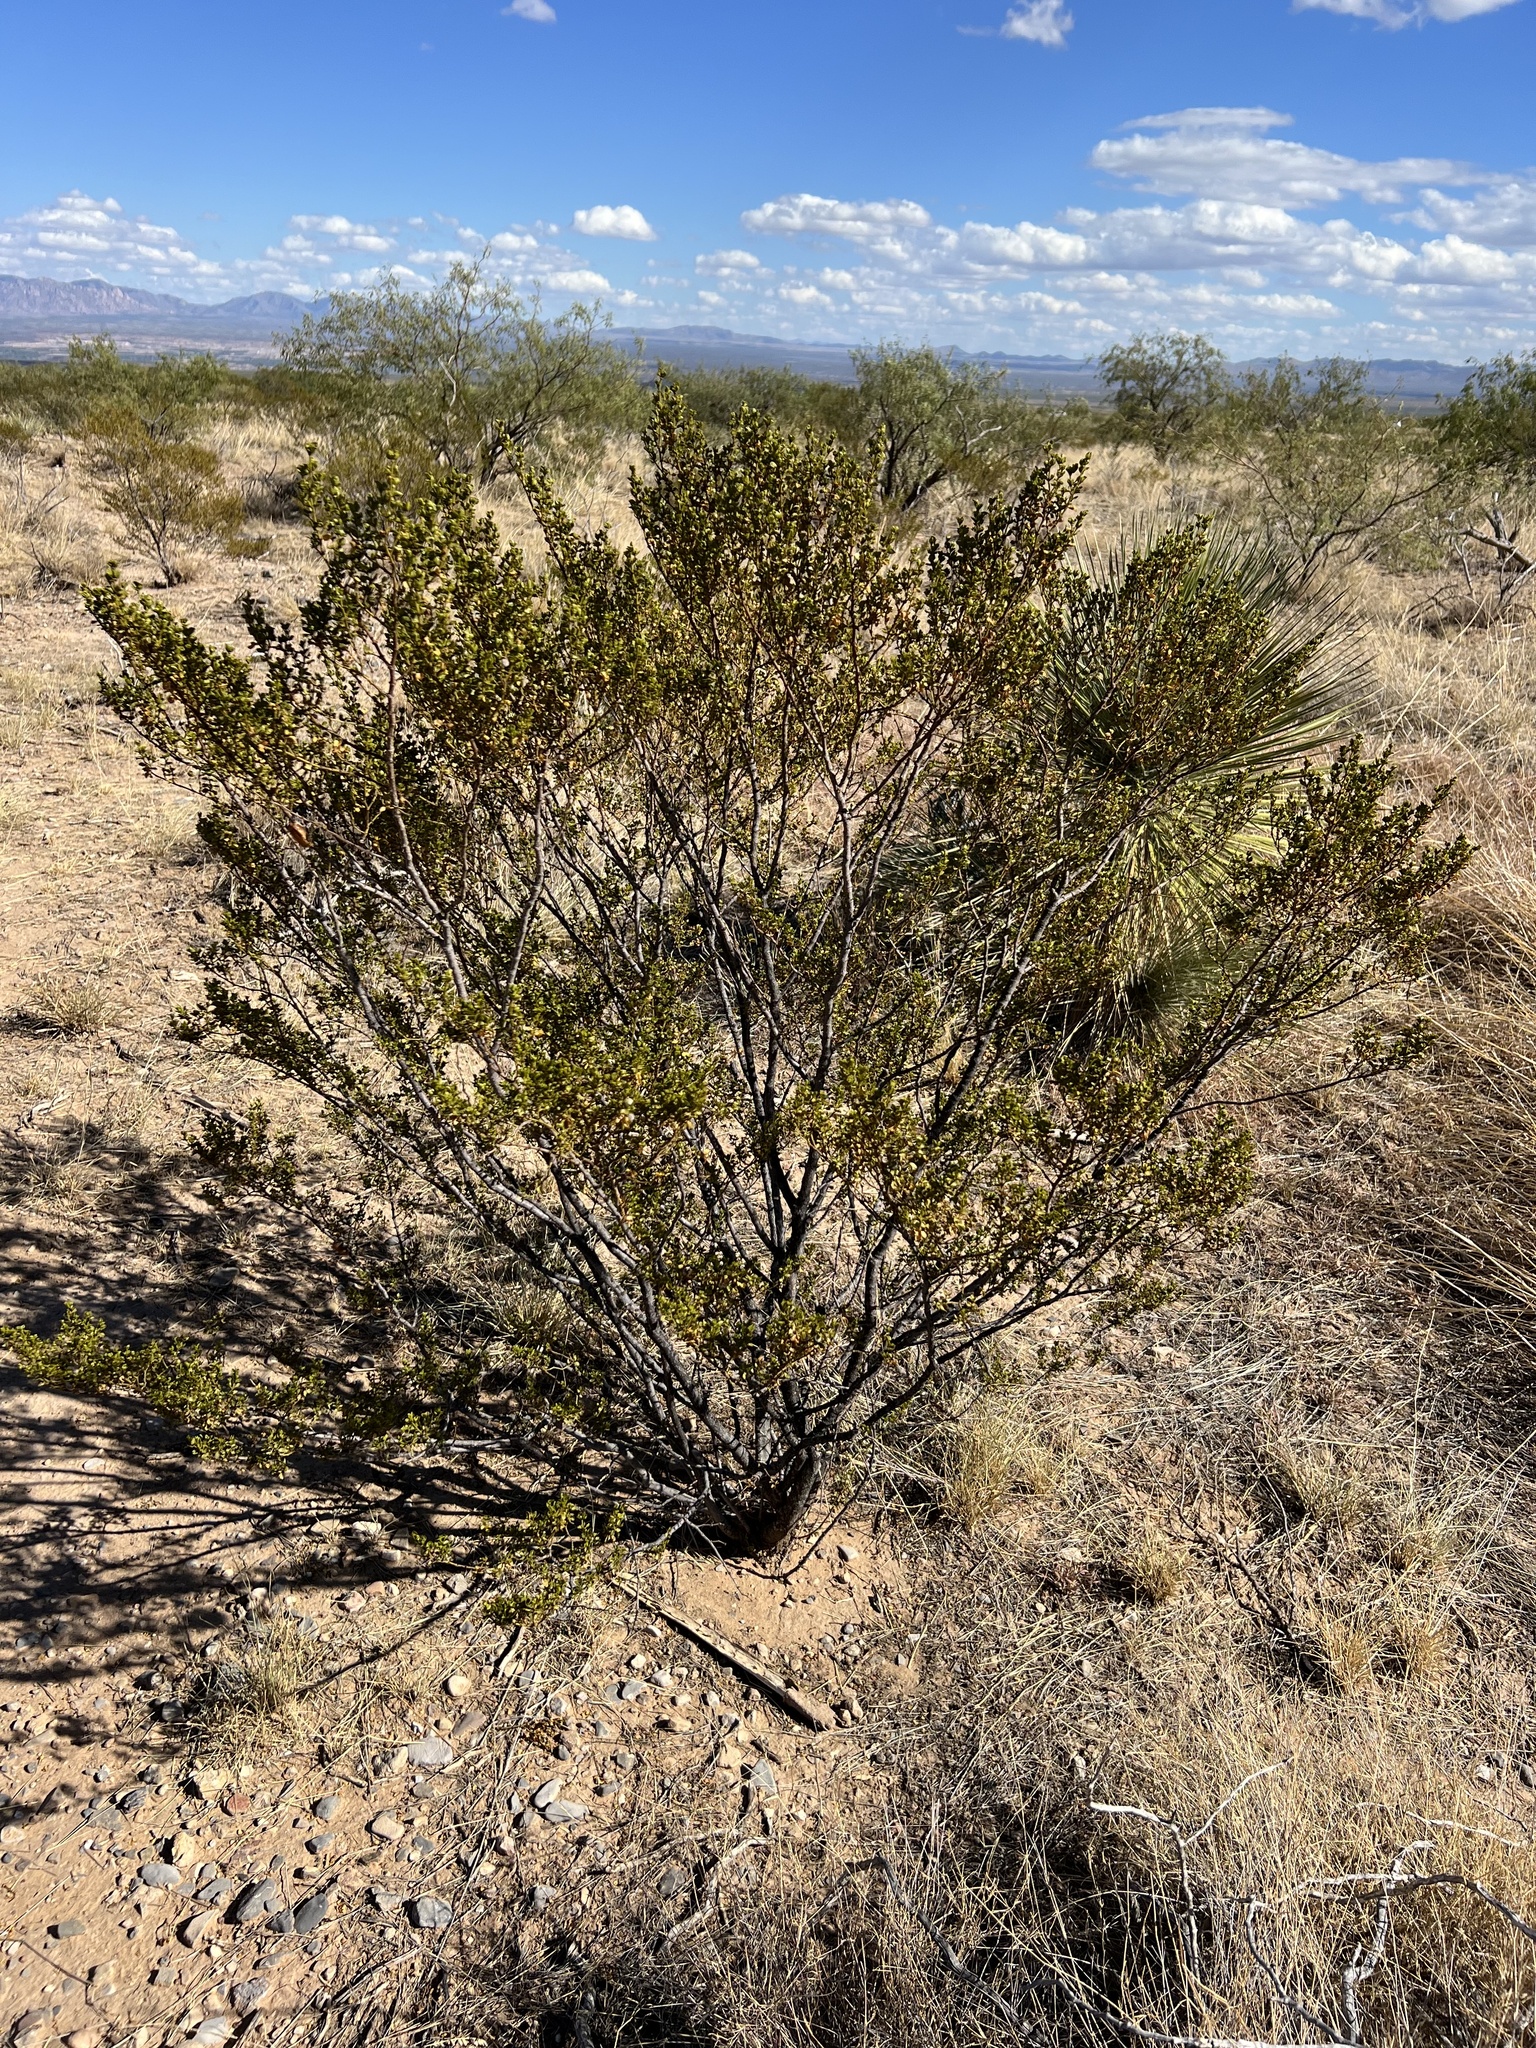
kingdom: Plantae
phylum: Tracheophyta
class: Magnoliopsida
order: Zygophyllales
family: Zygophyllaceae
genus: Larrea
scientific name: Larrea tridentata
